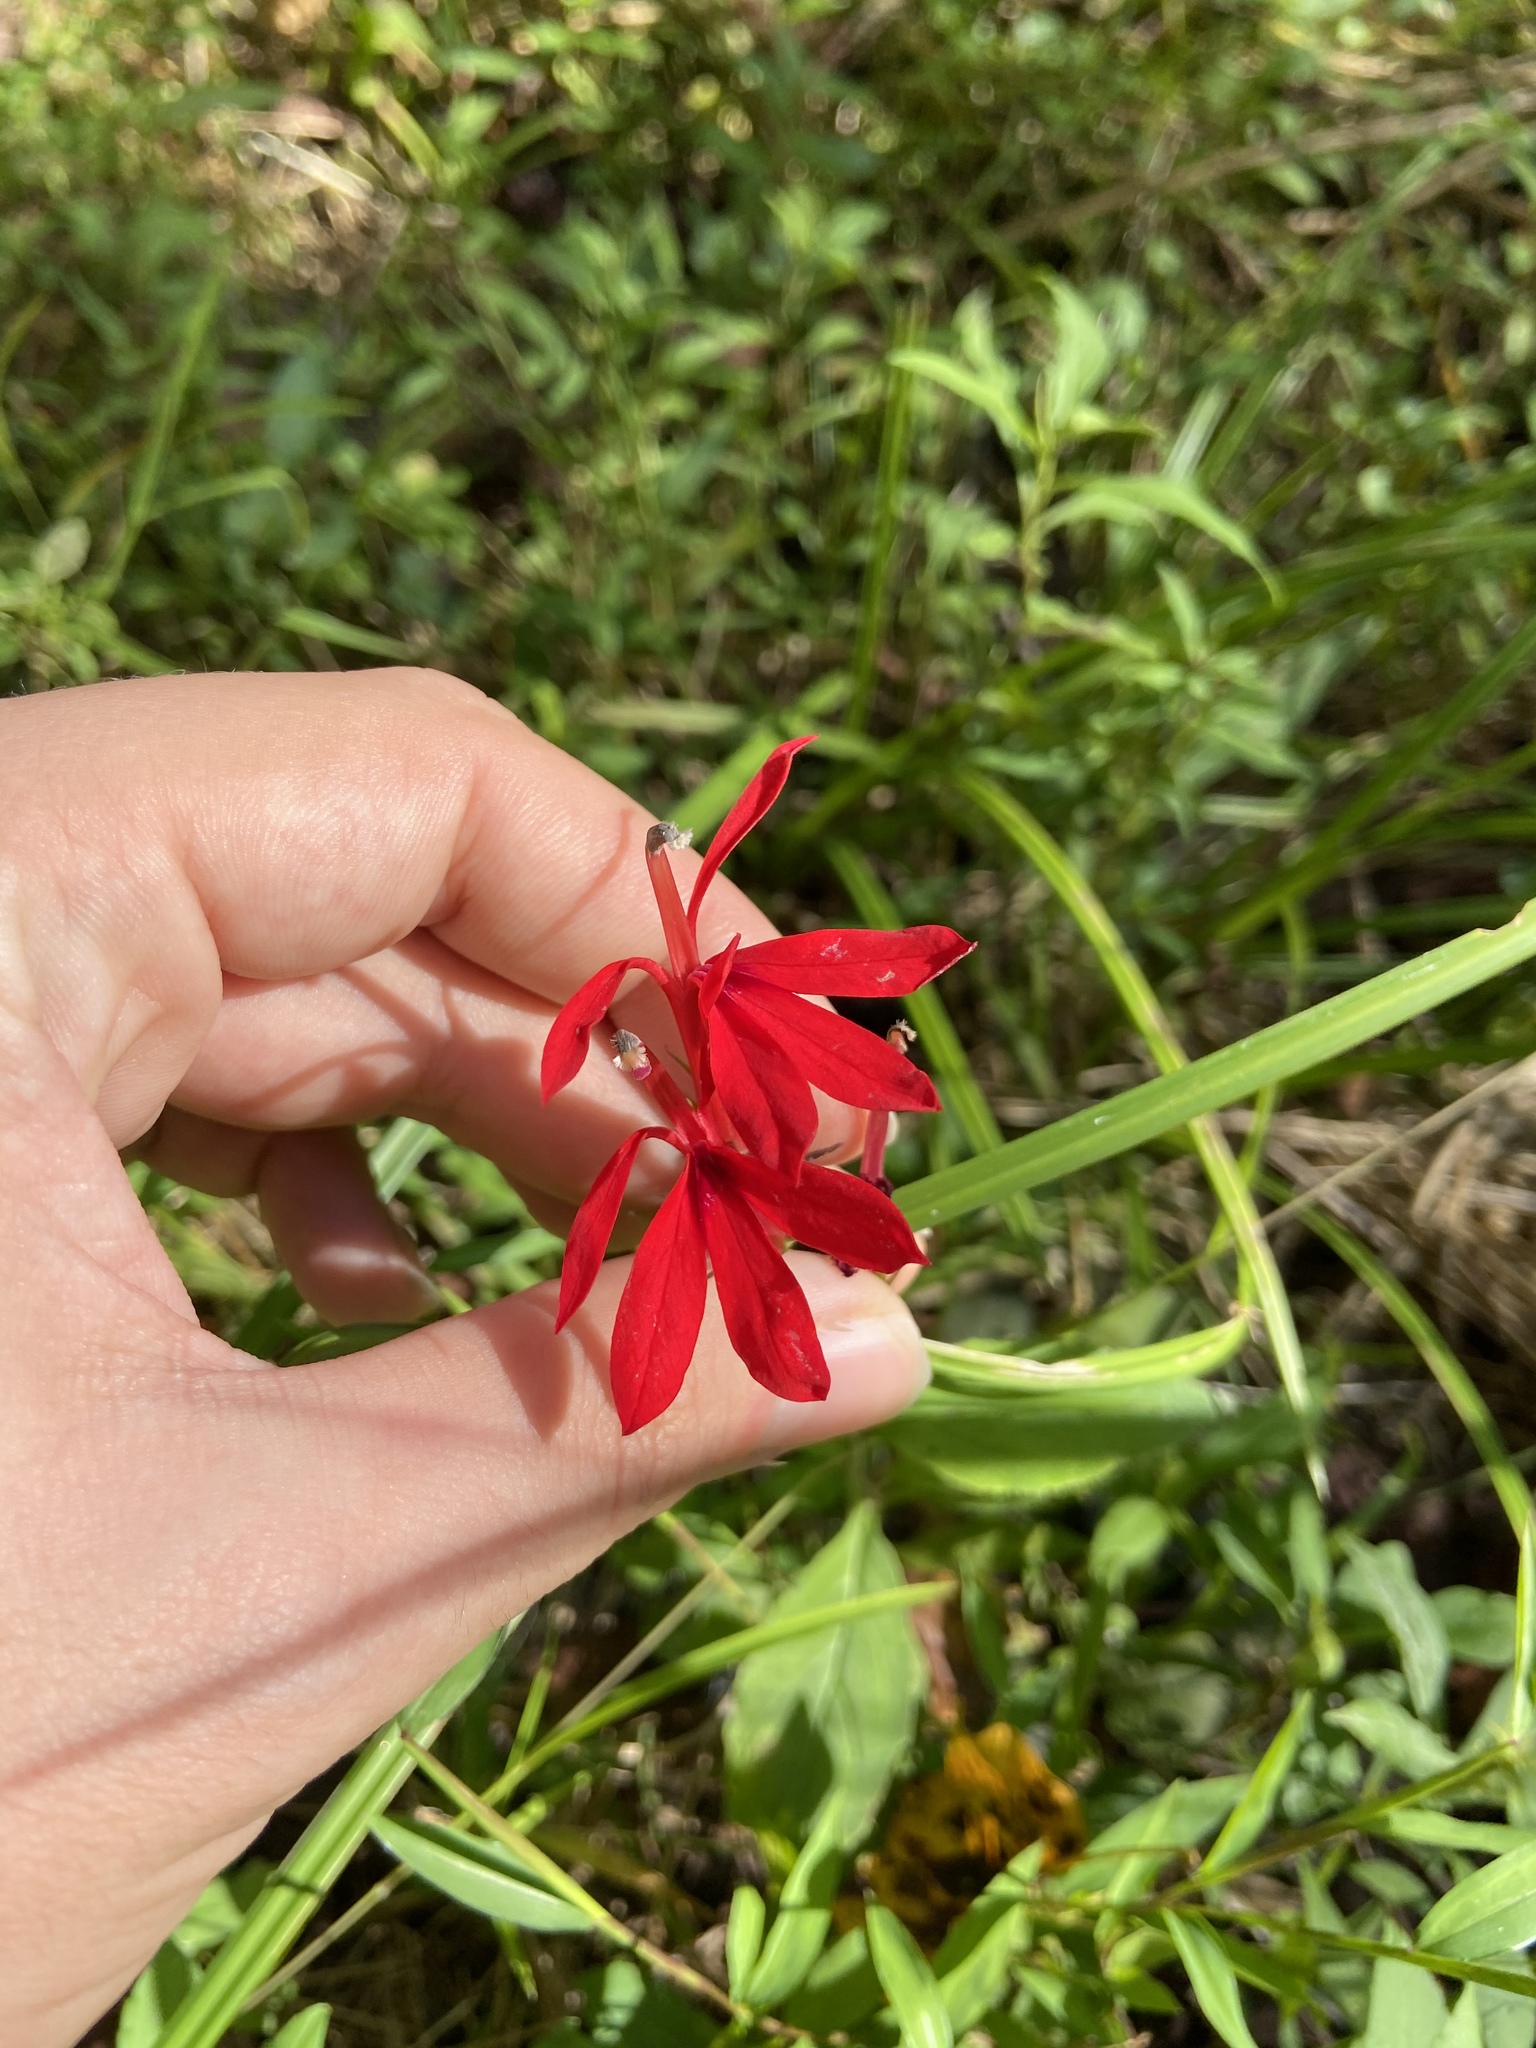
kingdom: Plantae
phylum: Tracheophyta
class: Magnoliopsida
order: Asterales
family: Campanulaceae
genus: Lobelia
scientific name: Lobelia cardinalis
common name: Cardinal flower
